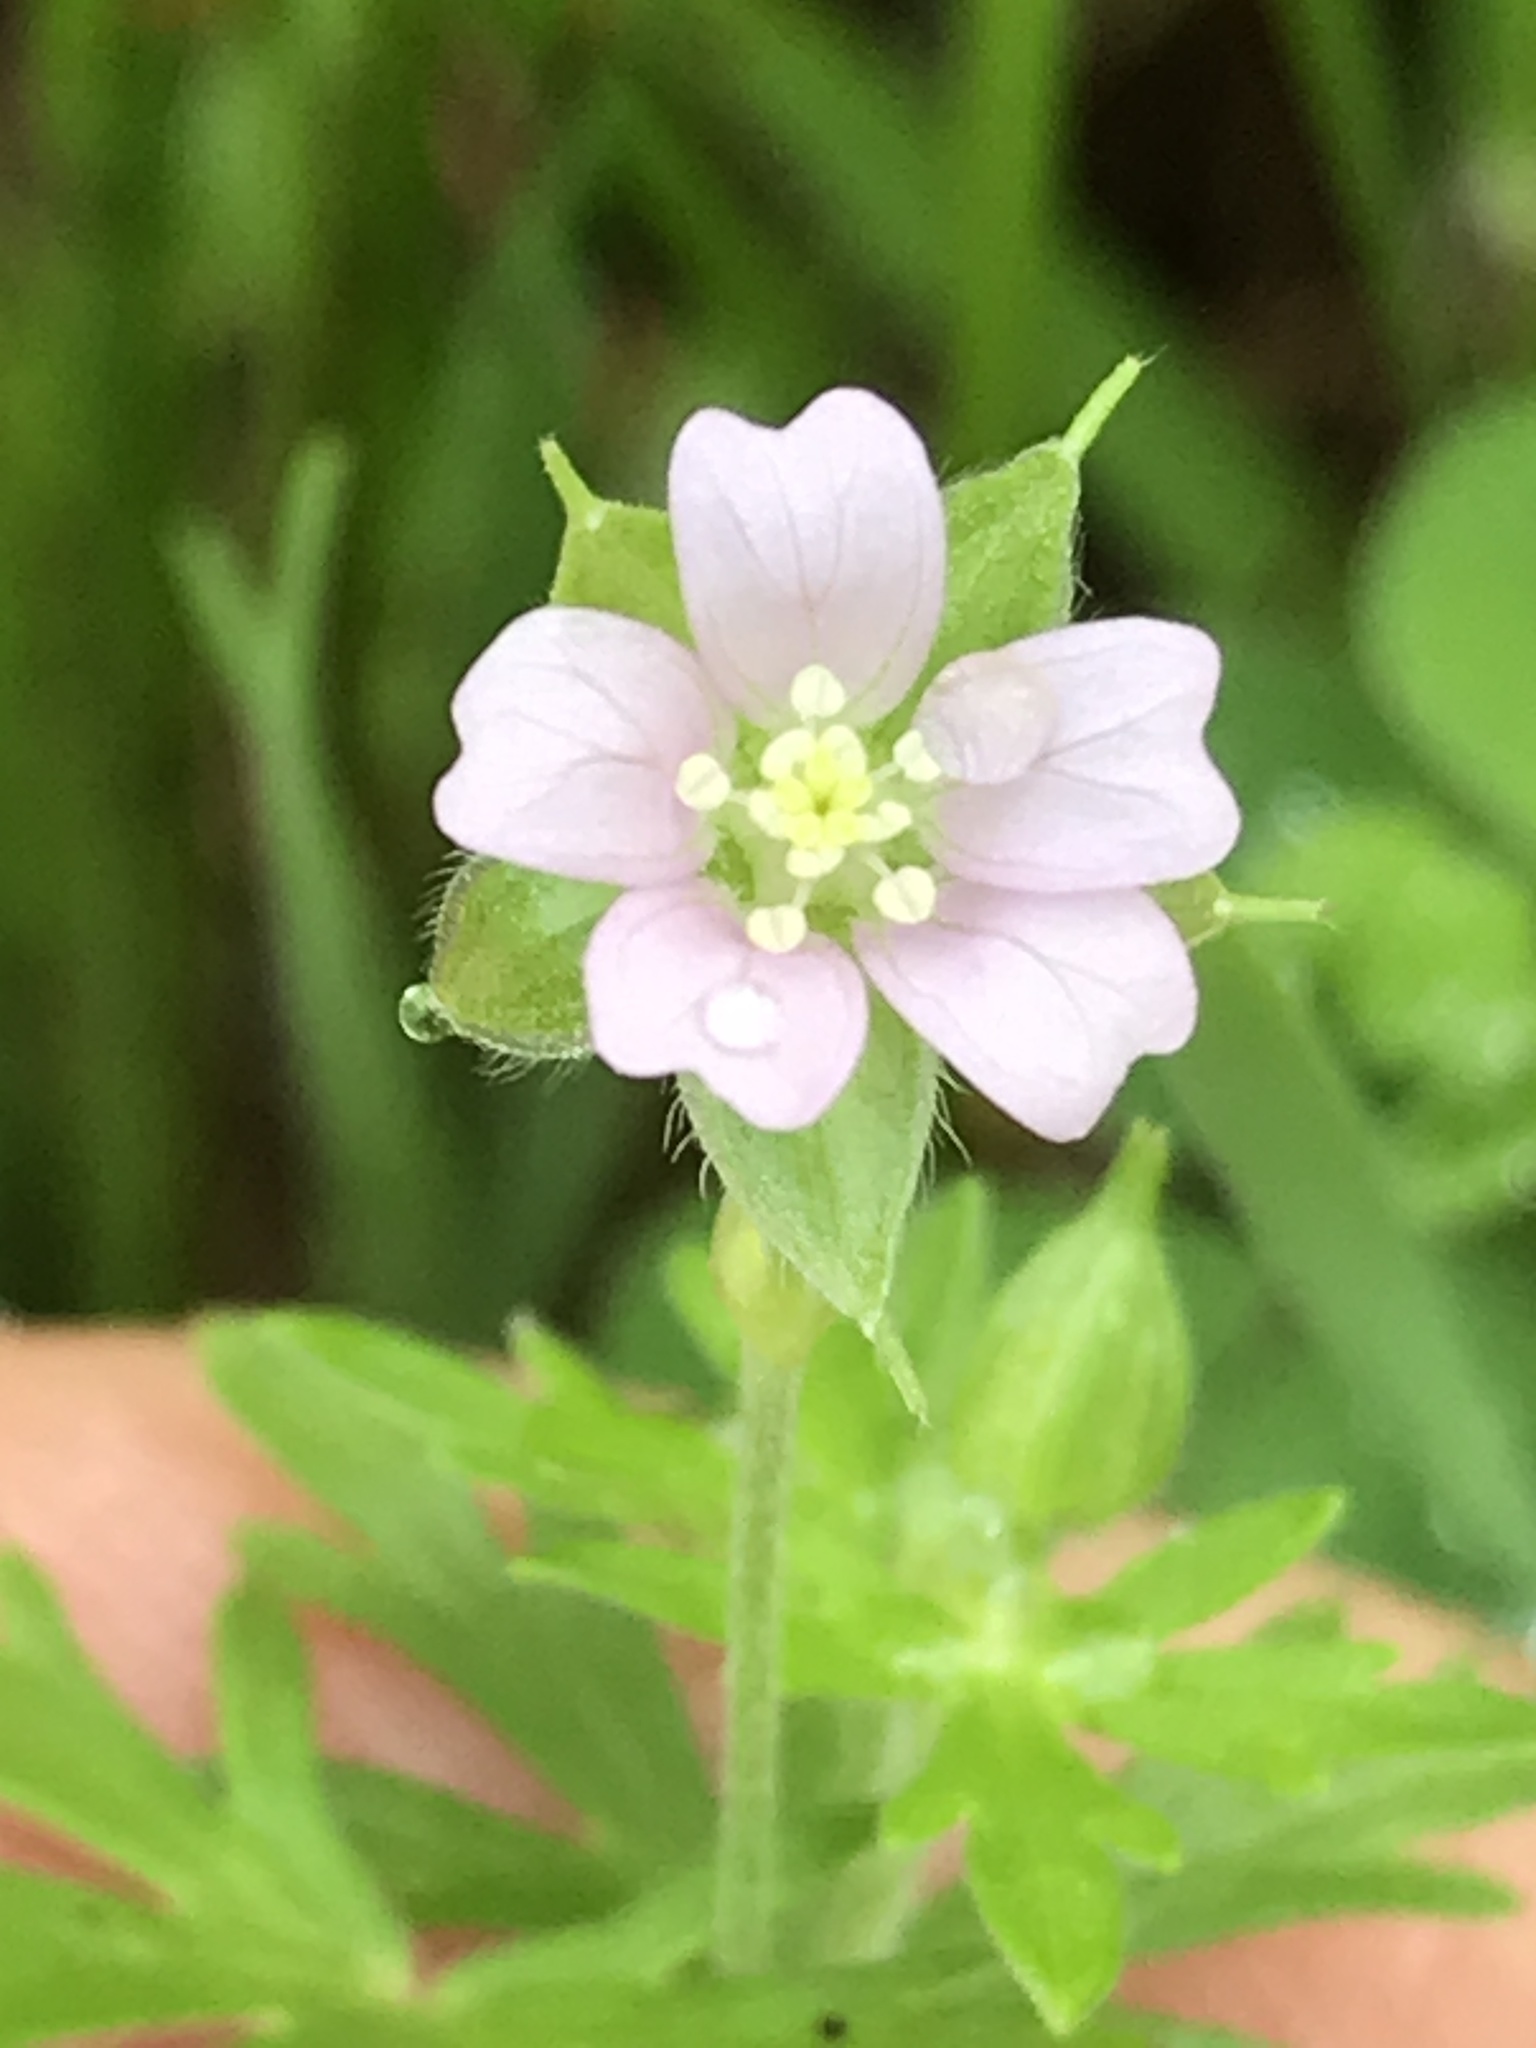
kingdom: Plantae
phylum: Tracheophyta
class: Magnoliopsida
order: Geraniales
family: Geraniaceae
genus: Geranium
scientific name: Geranium carolinianum
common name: Carolina crane's-bill
